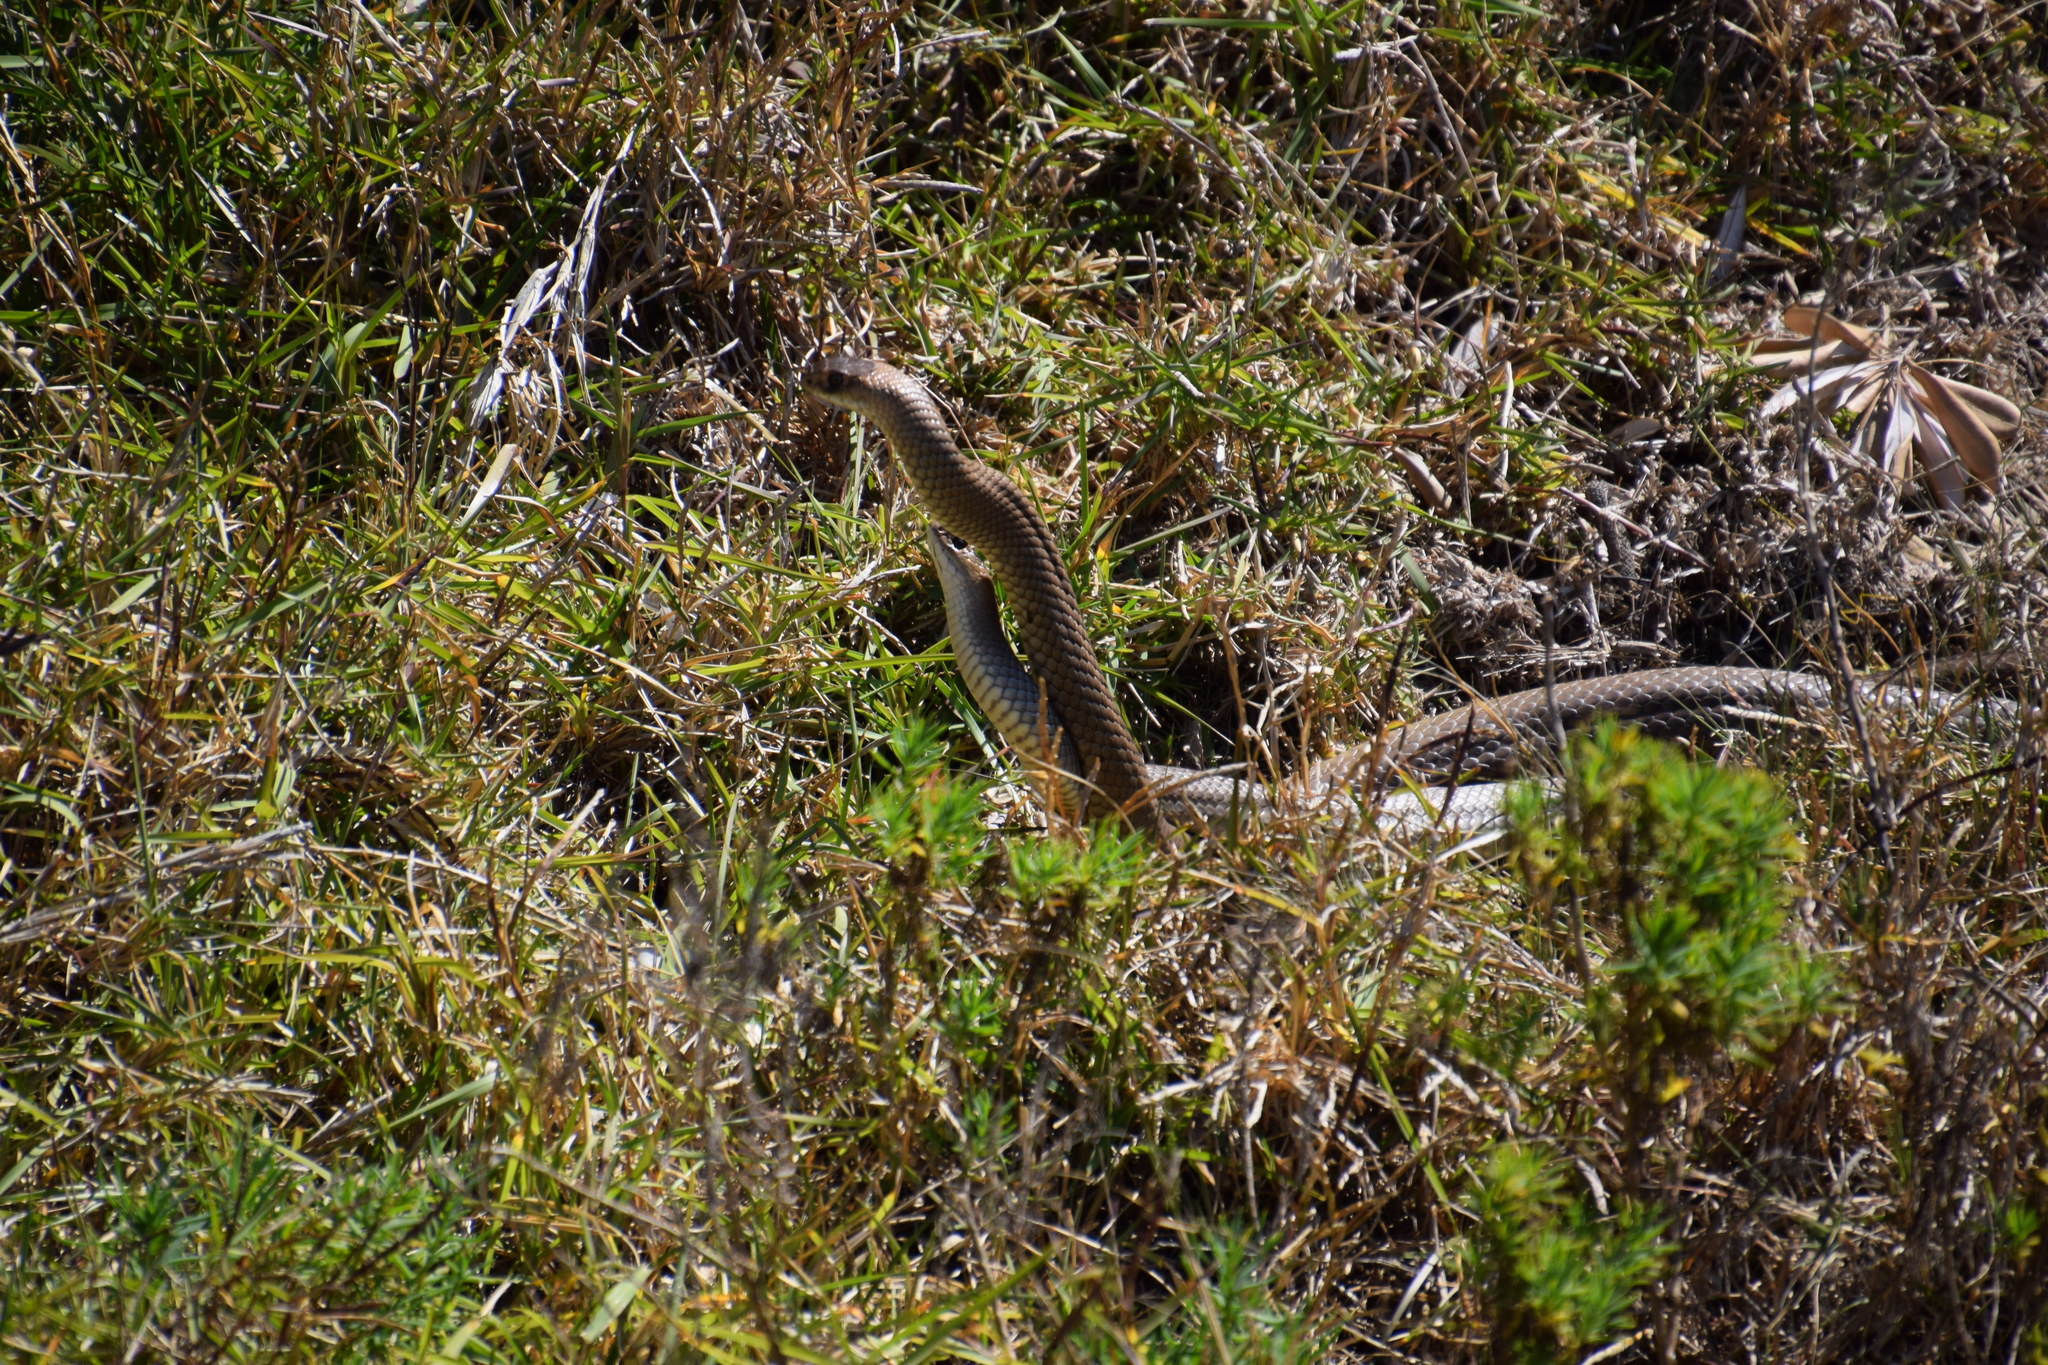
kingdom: Animalia
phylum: Chordata
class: Squamata
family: Elapidae
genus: Pseudonaja
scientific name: Pseudonaja textilis
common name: Eastern brown snake
